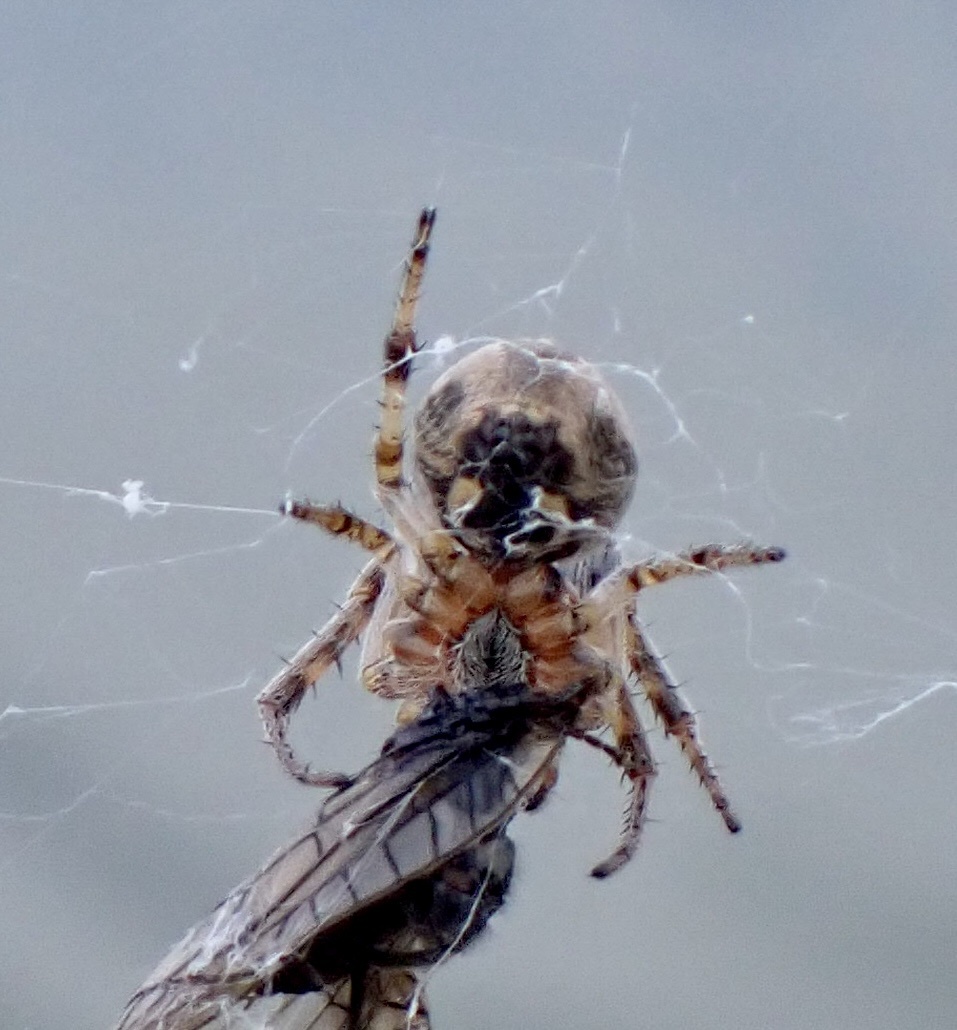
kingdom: Animalia
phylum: Arthropoda
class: Arachnida
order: Araneae
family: Araneidae
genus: Larinioides
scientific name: Larinioides cornutus
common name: Furrow orbweaver
